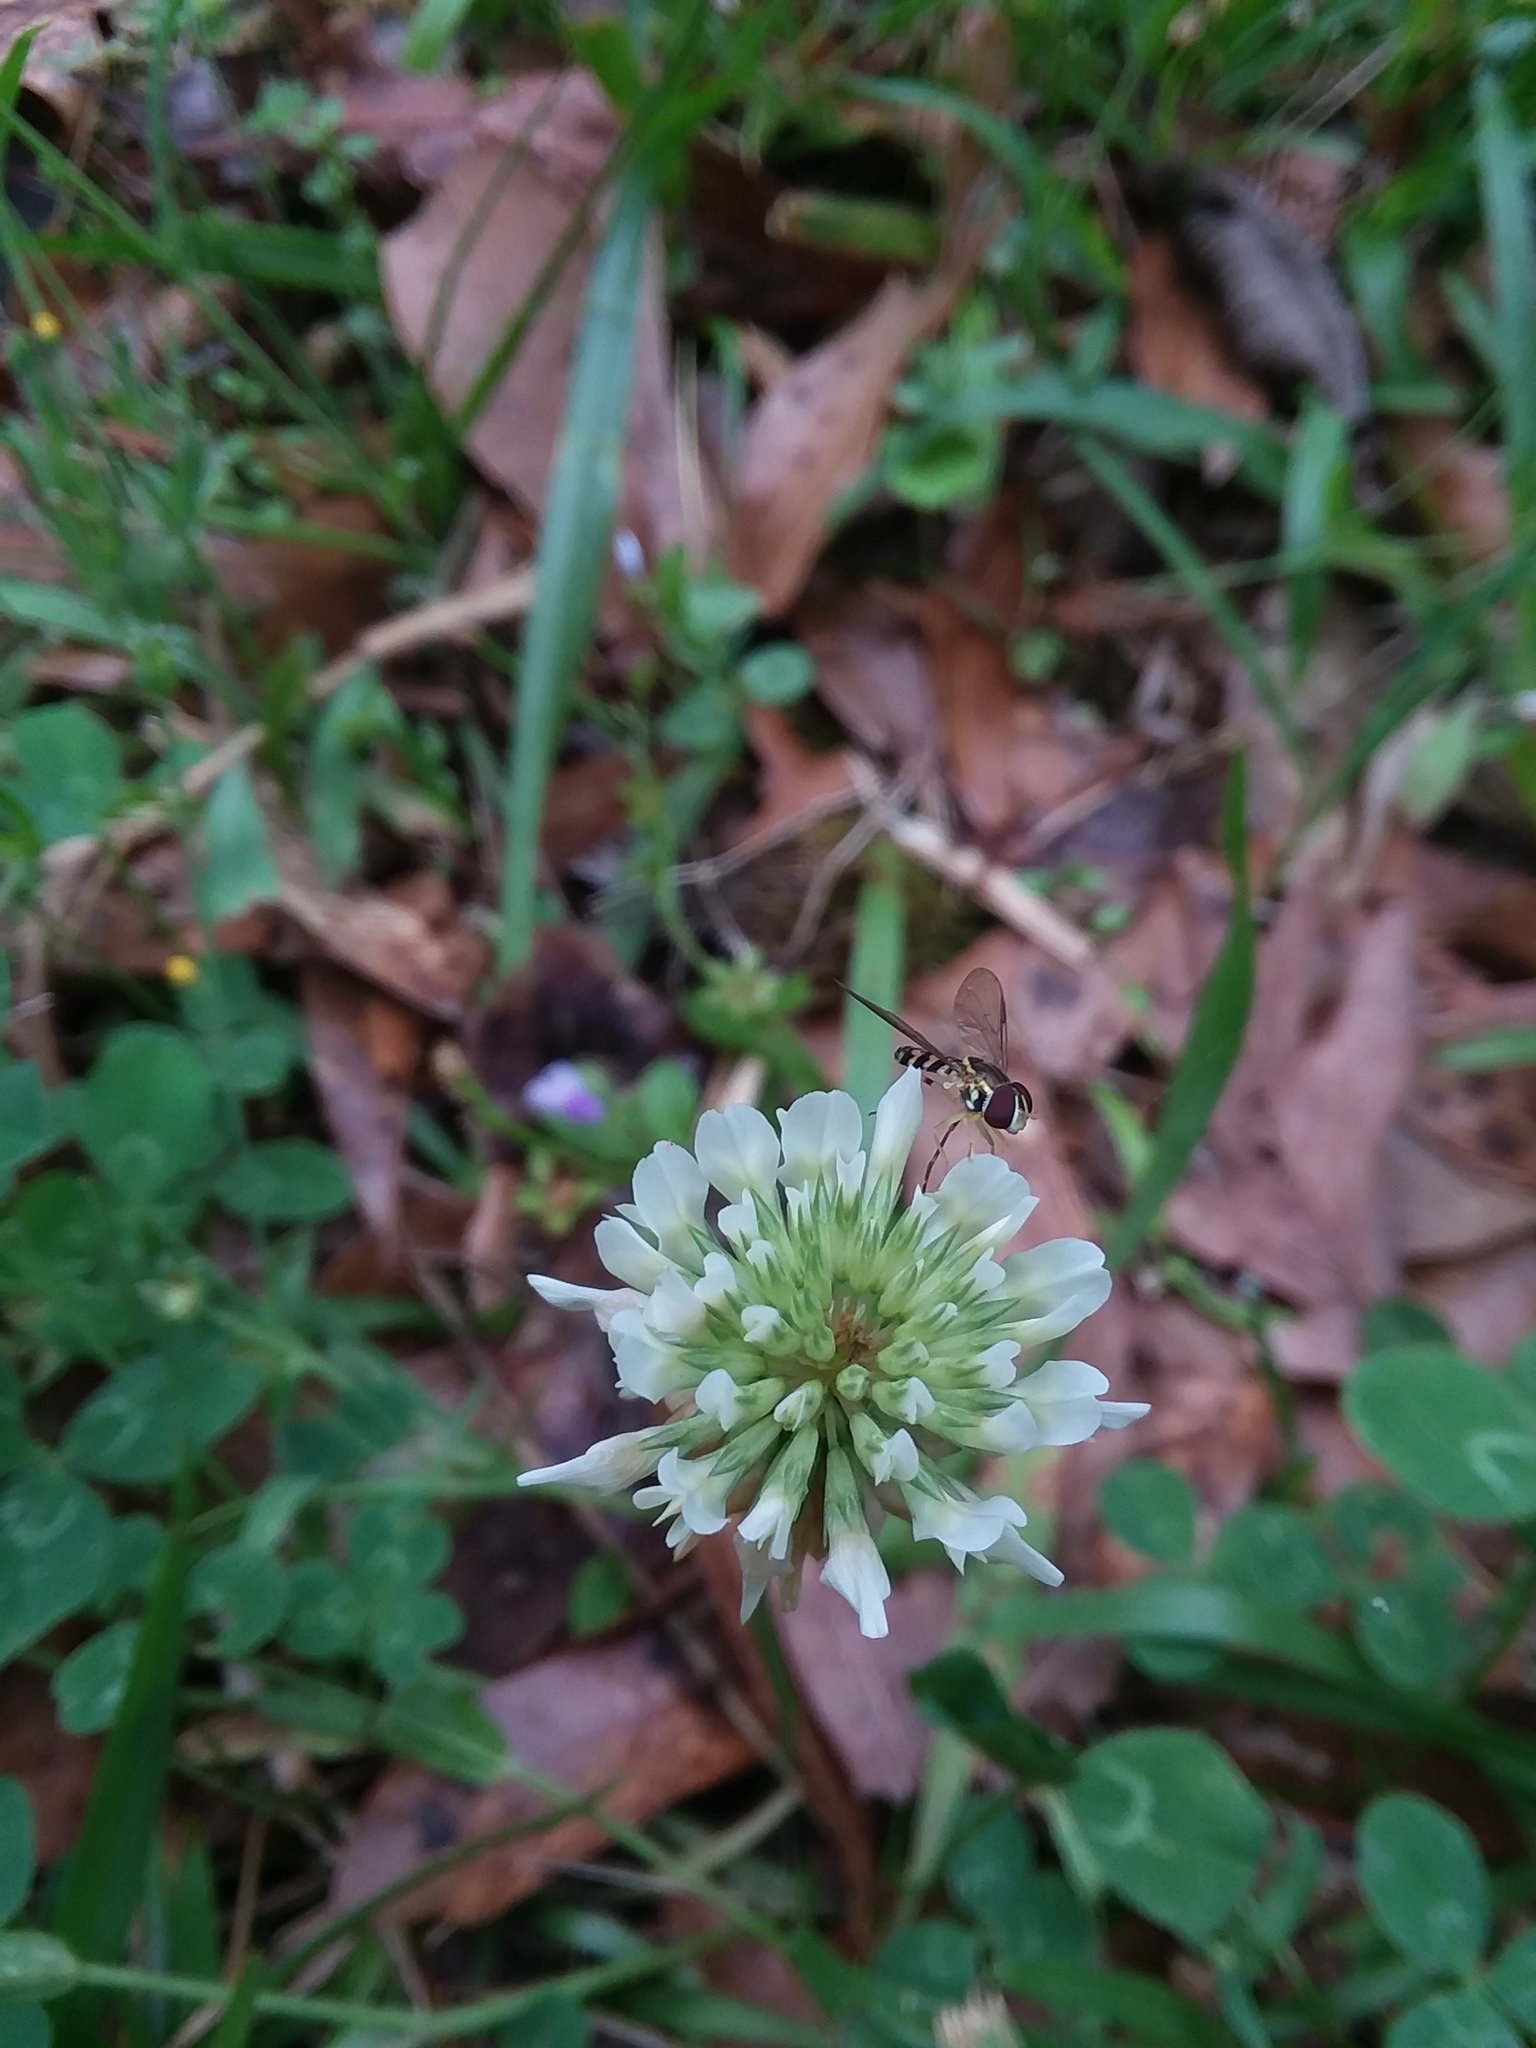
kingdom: Plantae
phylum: Tracheophyta
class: Magnoliopsida
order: Fabales
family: Fabaceae
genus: Trifolium
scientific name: Trifolium repens
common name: White clover
